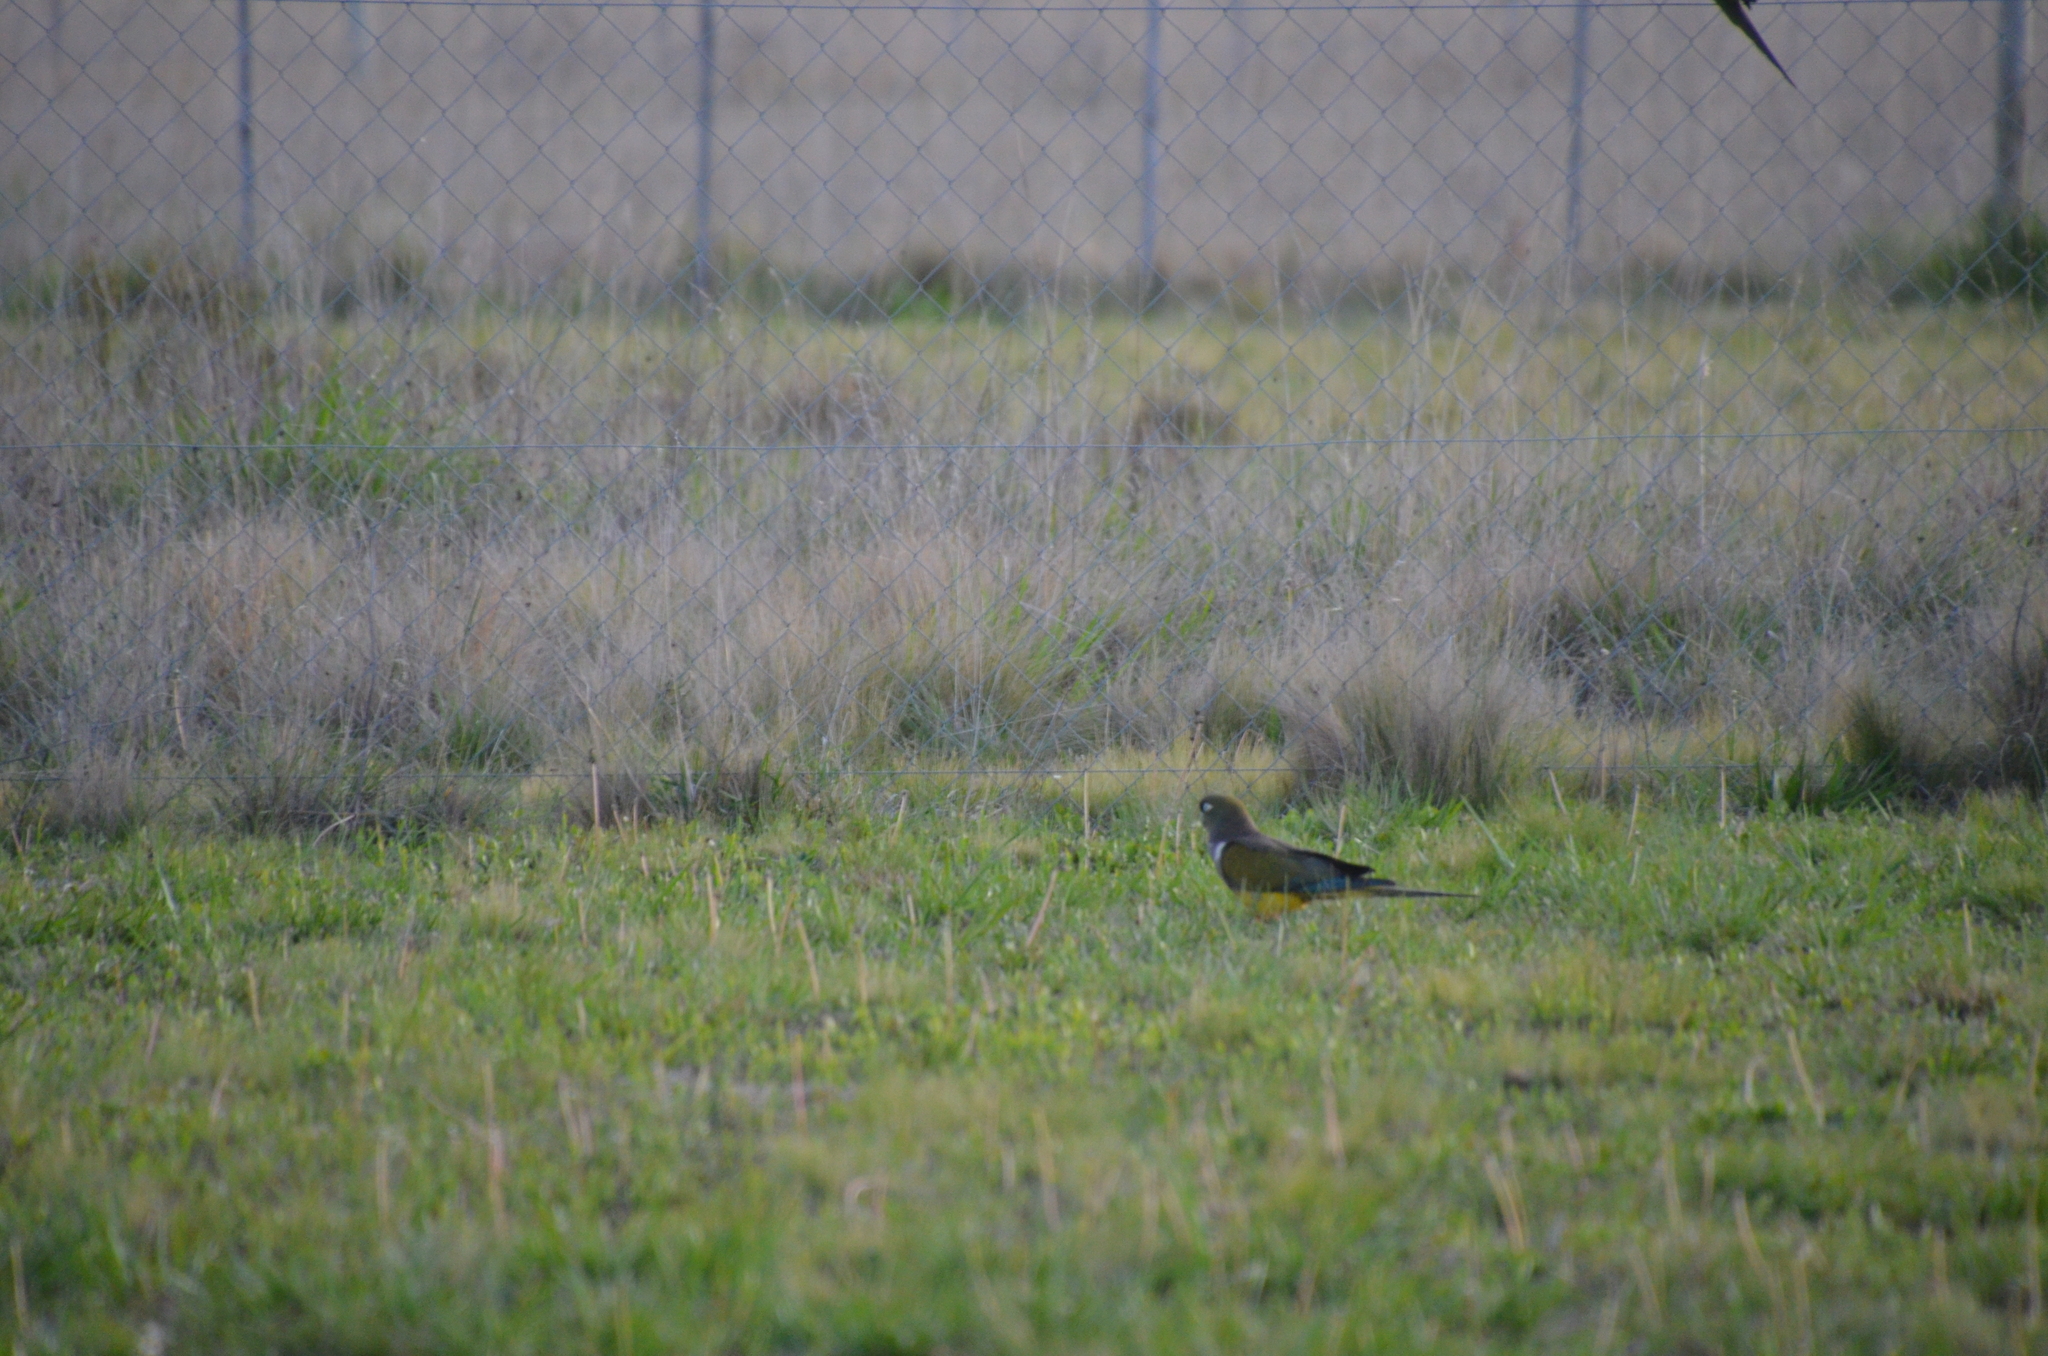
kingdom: Animalia
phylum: Chordata
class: Aves
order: Psittaciformes
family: Psittacidae
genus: Cyanoliseus
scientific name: Cyanoliseus patagonus
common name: Burrowing parrot
